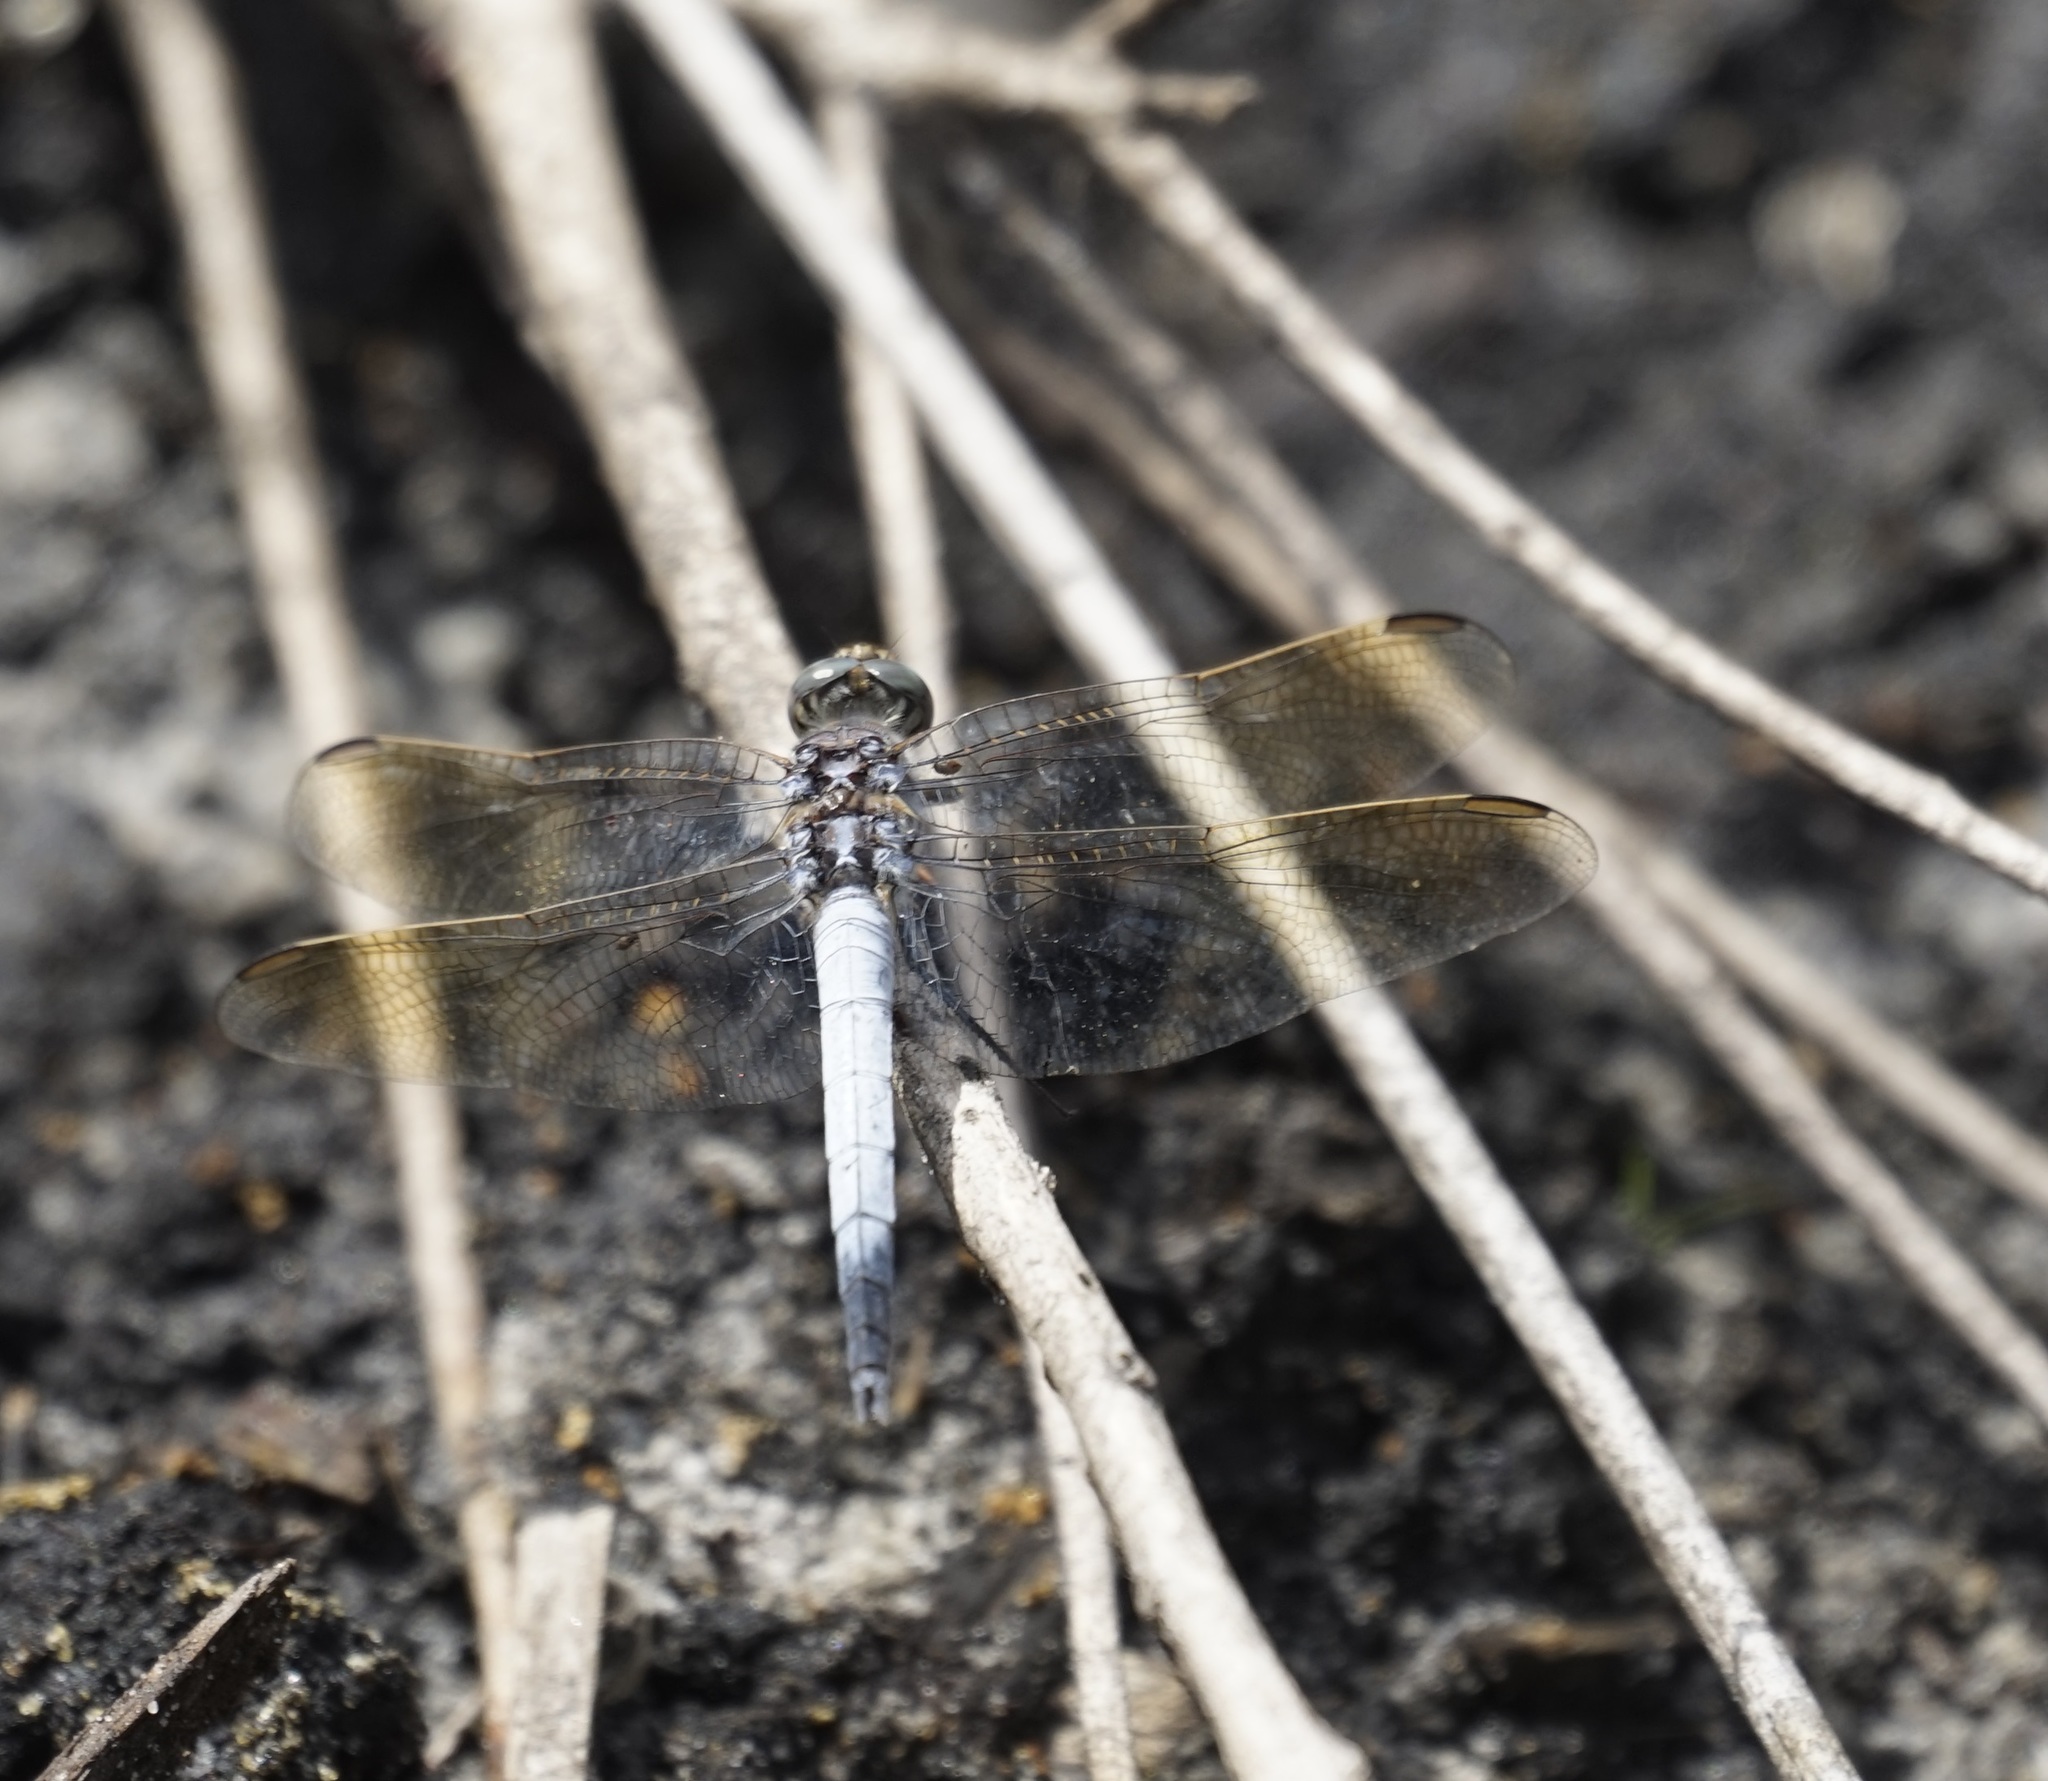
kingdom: Animalia
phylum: Arthropoda
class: Insecta
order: Odonata
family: Libellulidae
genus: Orthetrum
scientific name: Orthetrum caledonicum
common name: Blue skimmer
